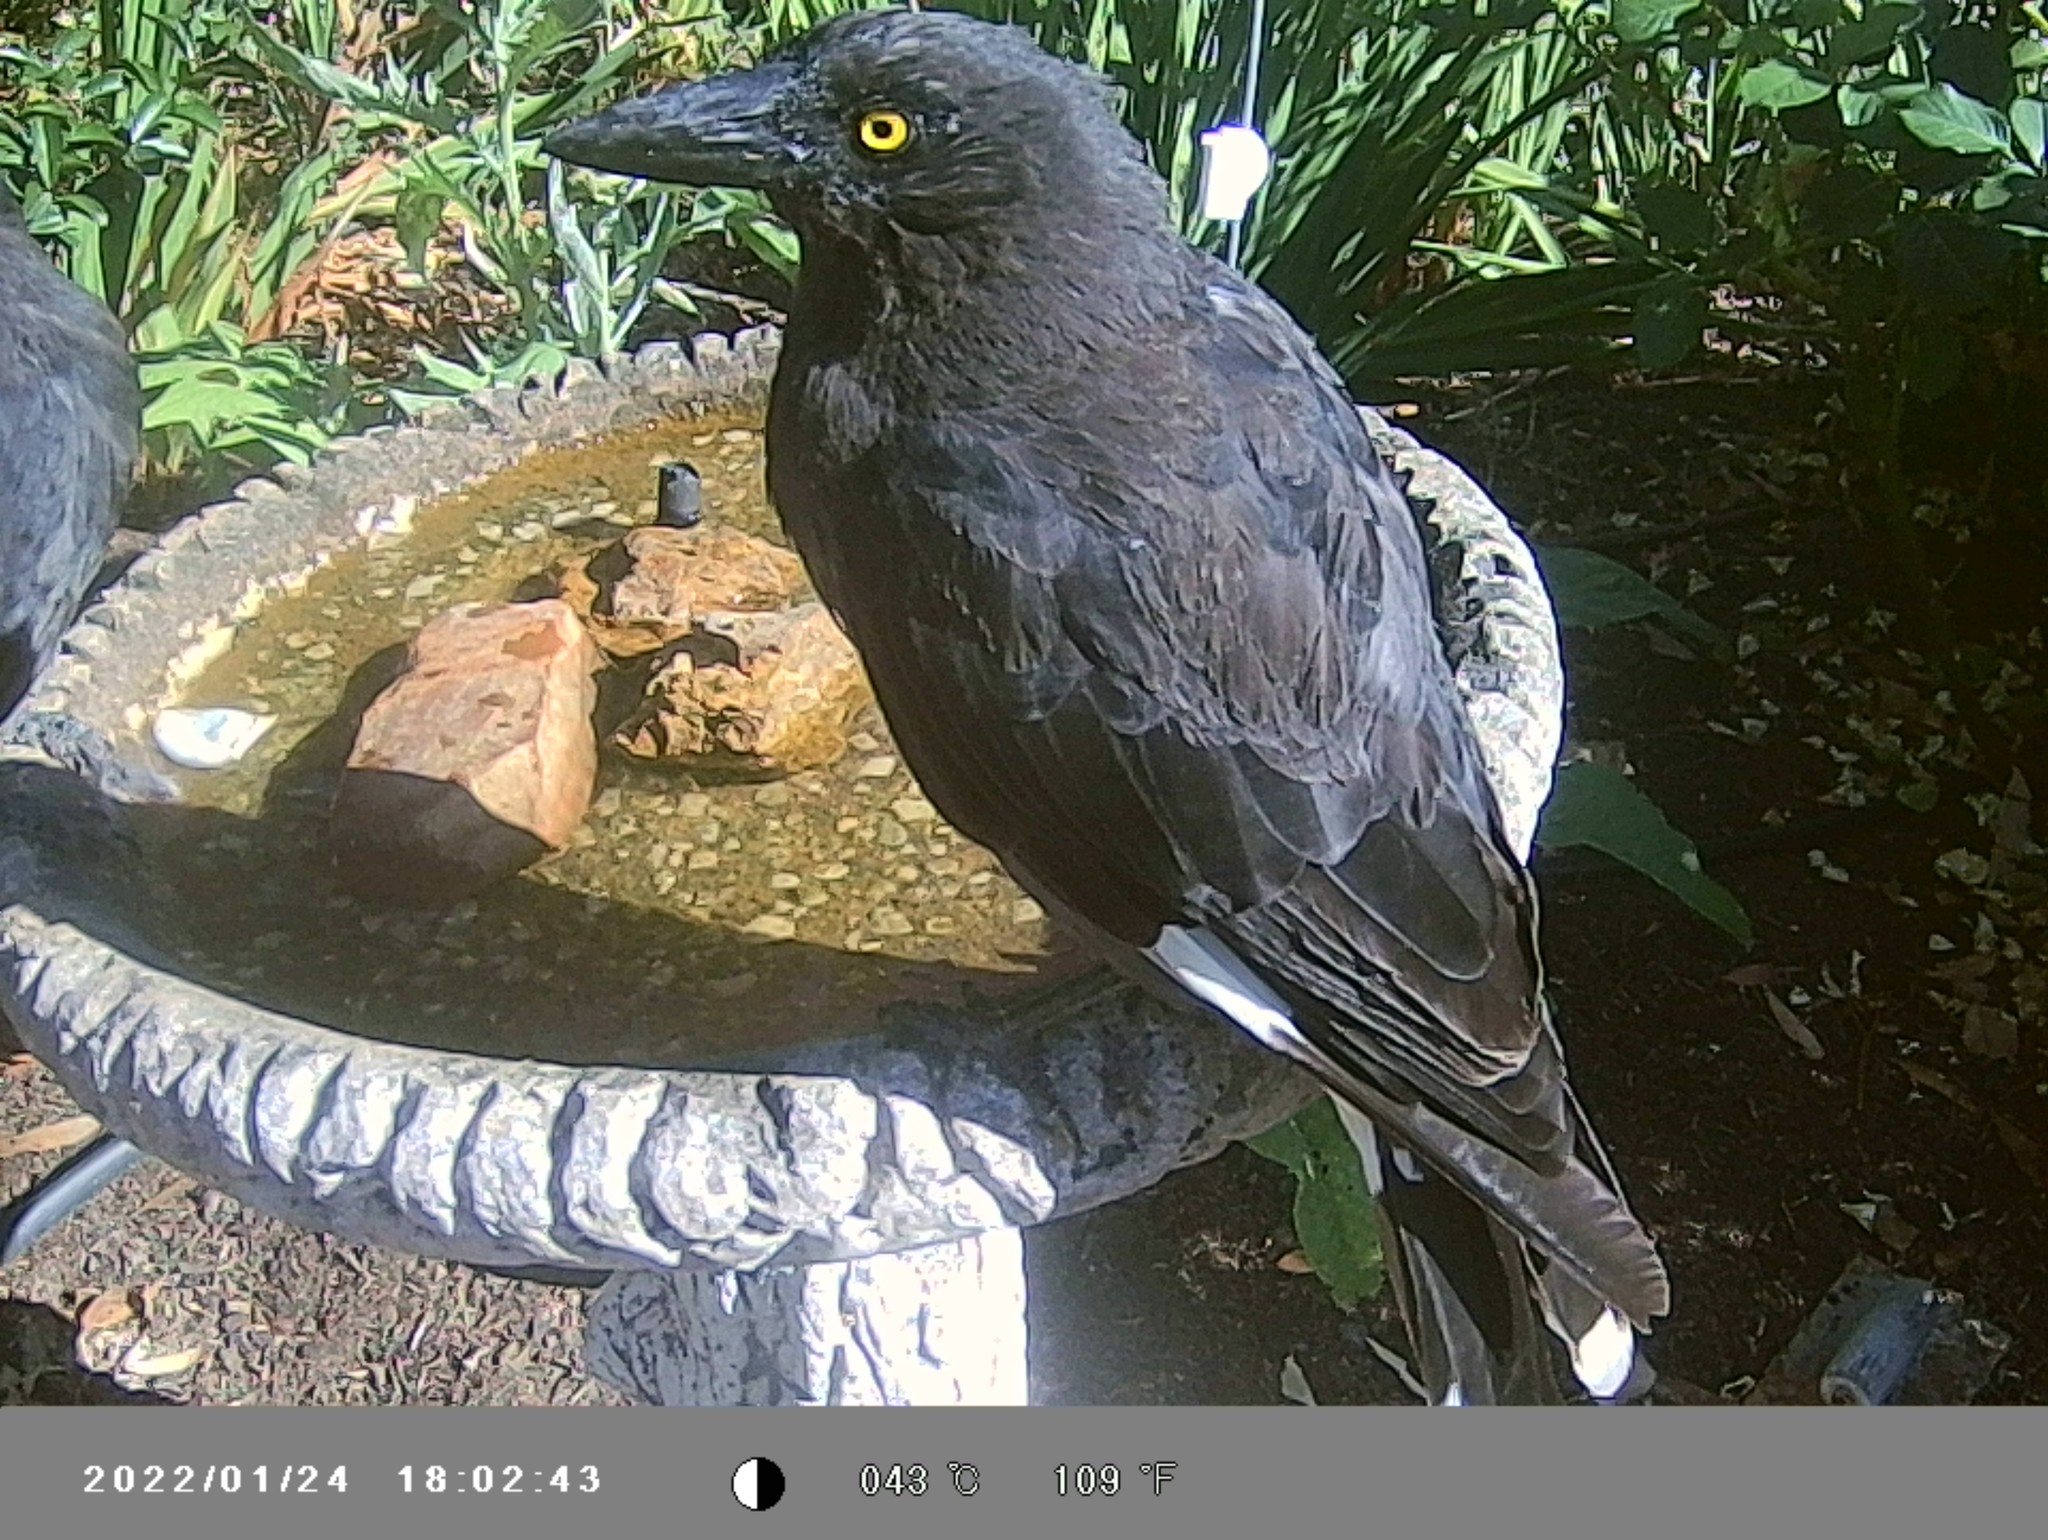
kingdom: Animalia
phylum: Chordata
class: Aves
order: Passeriformes
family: Cracticidae
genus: Strepera
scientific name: Strepera graculina
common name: Pied currawong
